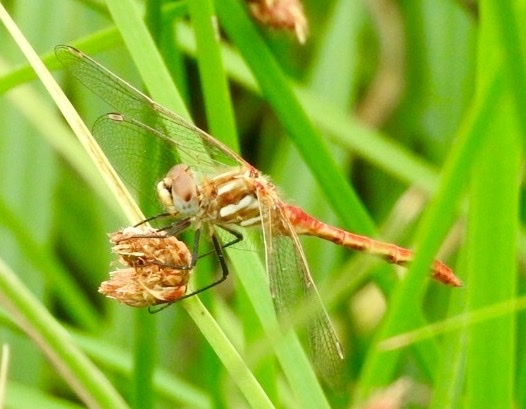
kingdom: Animalia
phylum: Arthropoda
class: Insecta
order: Odonata
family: Libellulidae
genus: Sympetrum
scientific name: Sympetrum pallipes
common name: Striped meadowhawk
